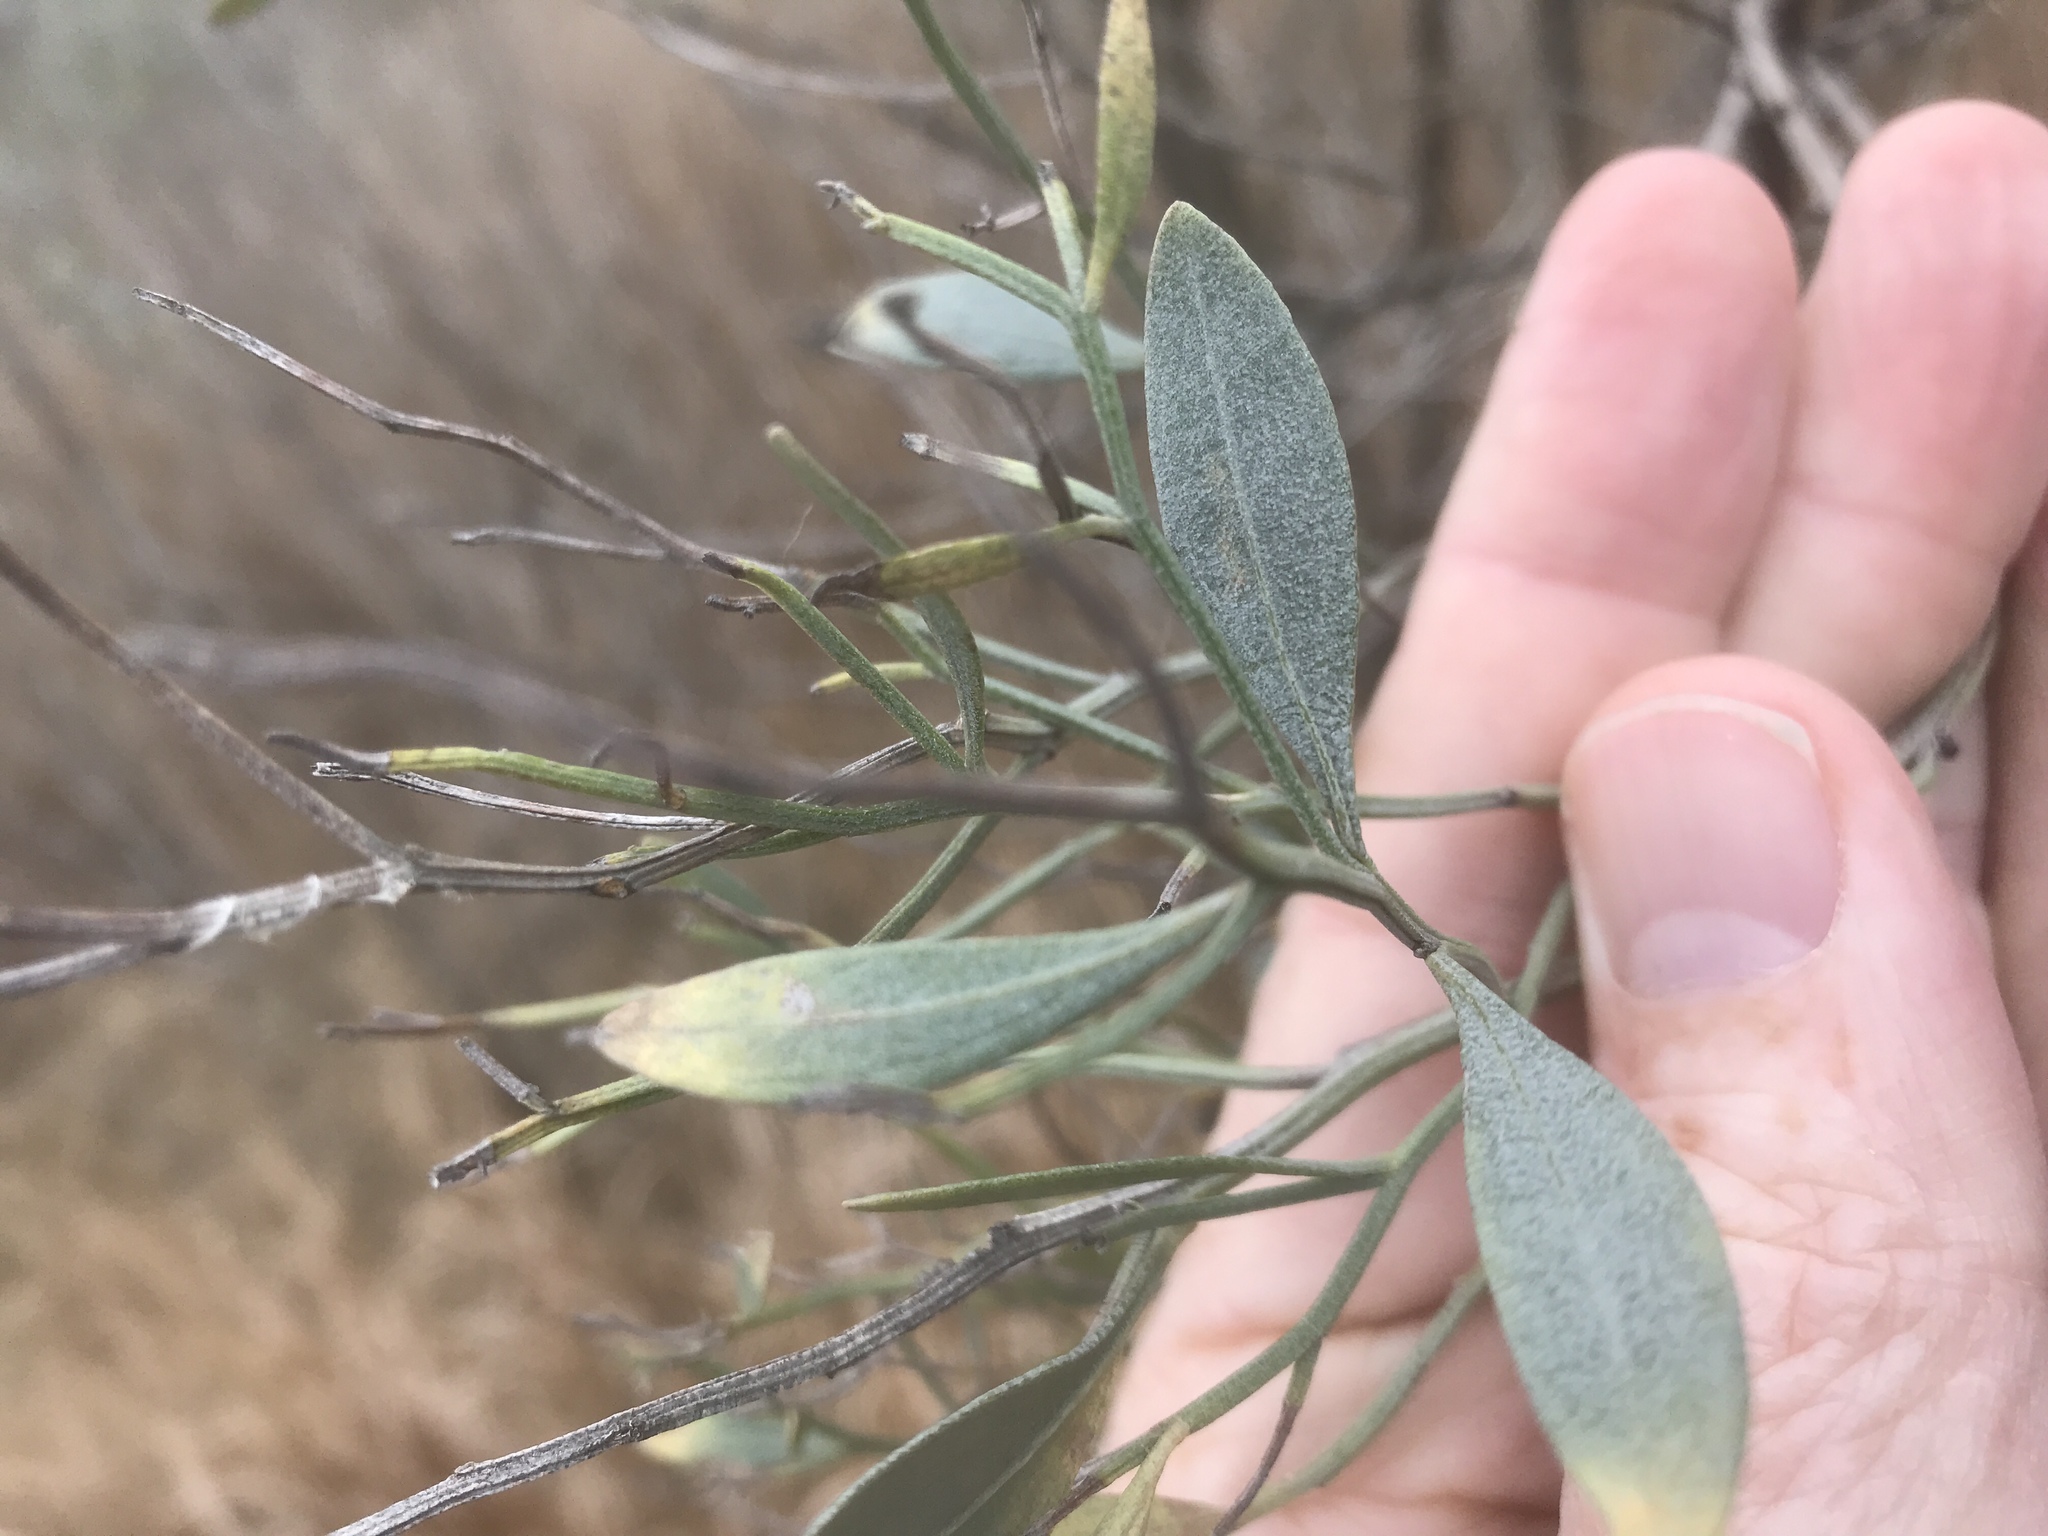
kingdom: Plantae
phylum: Tracheophyta
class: Magnoliopsida
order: Asterales
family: Asteraceae
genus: Baccharis
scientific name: Baccharis halimifolia
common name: Eastern baccharis
